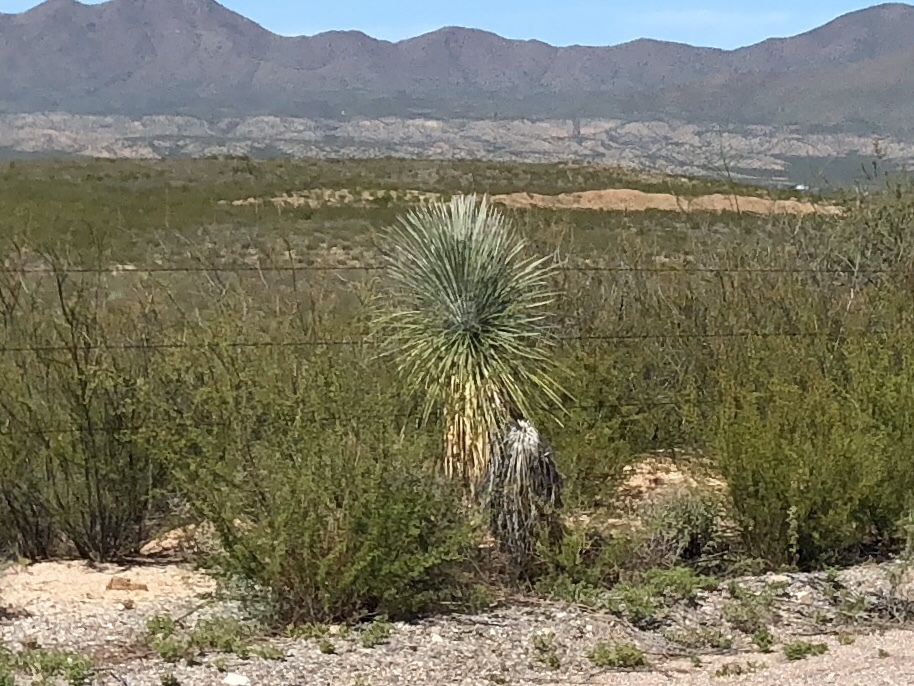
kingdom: Plantae
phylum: Tracheophyta
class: Liliopsida
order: Asparagales
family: Asparagaceae
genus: Yucca
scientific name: Yucca elata
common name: Palmella
